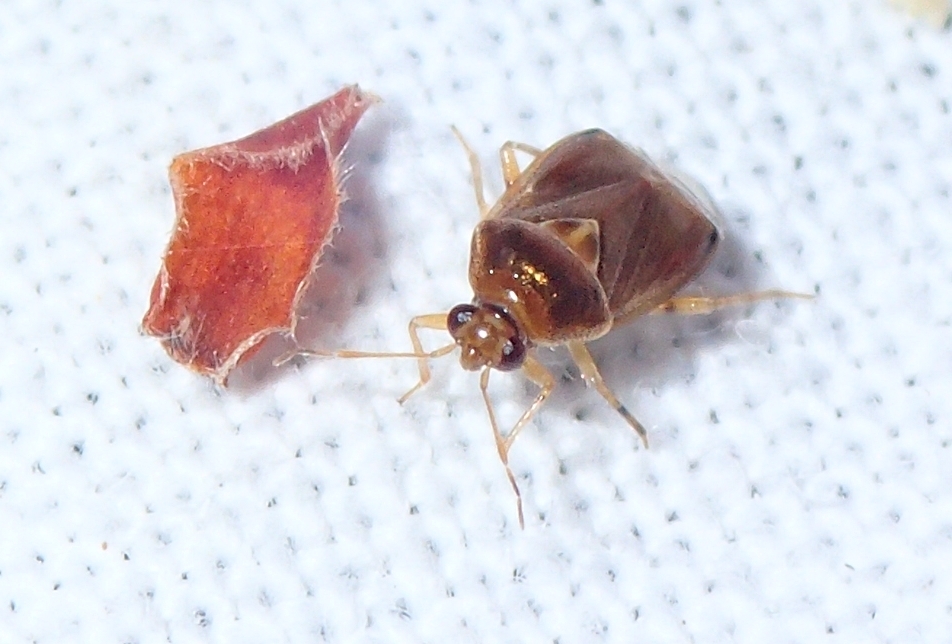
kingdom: Animalia
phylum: Arthropoda
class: Insecta
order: Hemiptera
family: Miridae
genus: Deraeocoris
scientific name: Deraeocoris lutescens
